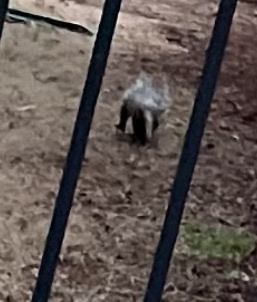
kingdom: Animalia
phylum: Chordata
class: Mammalia
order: Didelphimorphia
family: Didelphidae
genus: Didelphis
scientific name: Didelphis virginiana
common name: Virginia opossum
